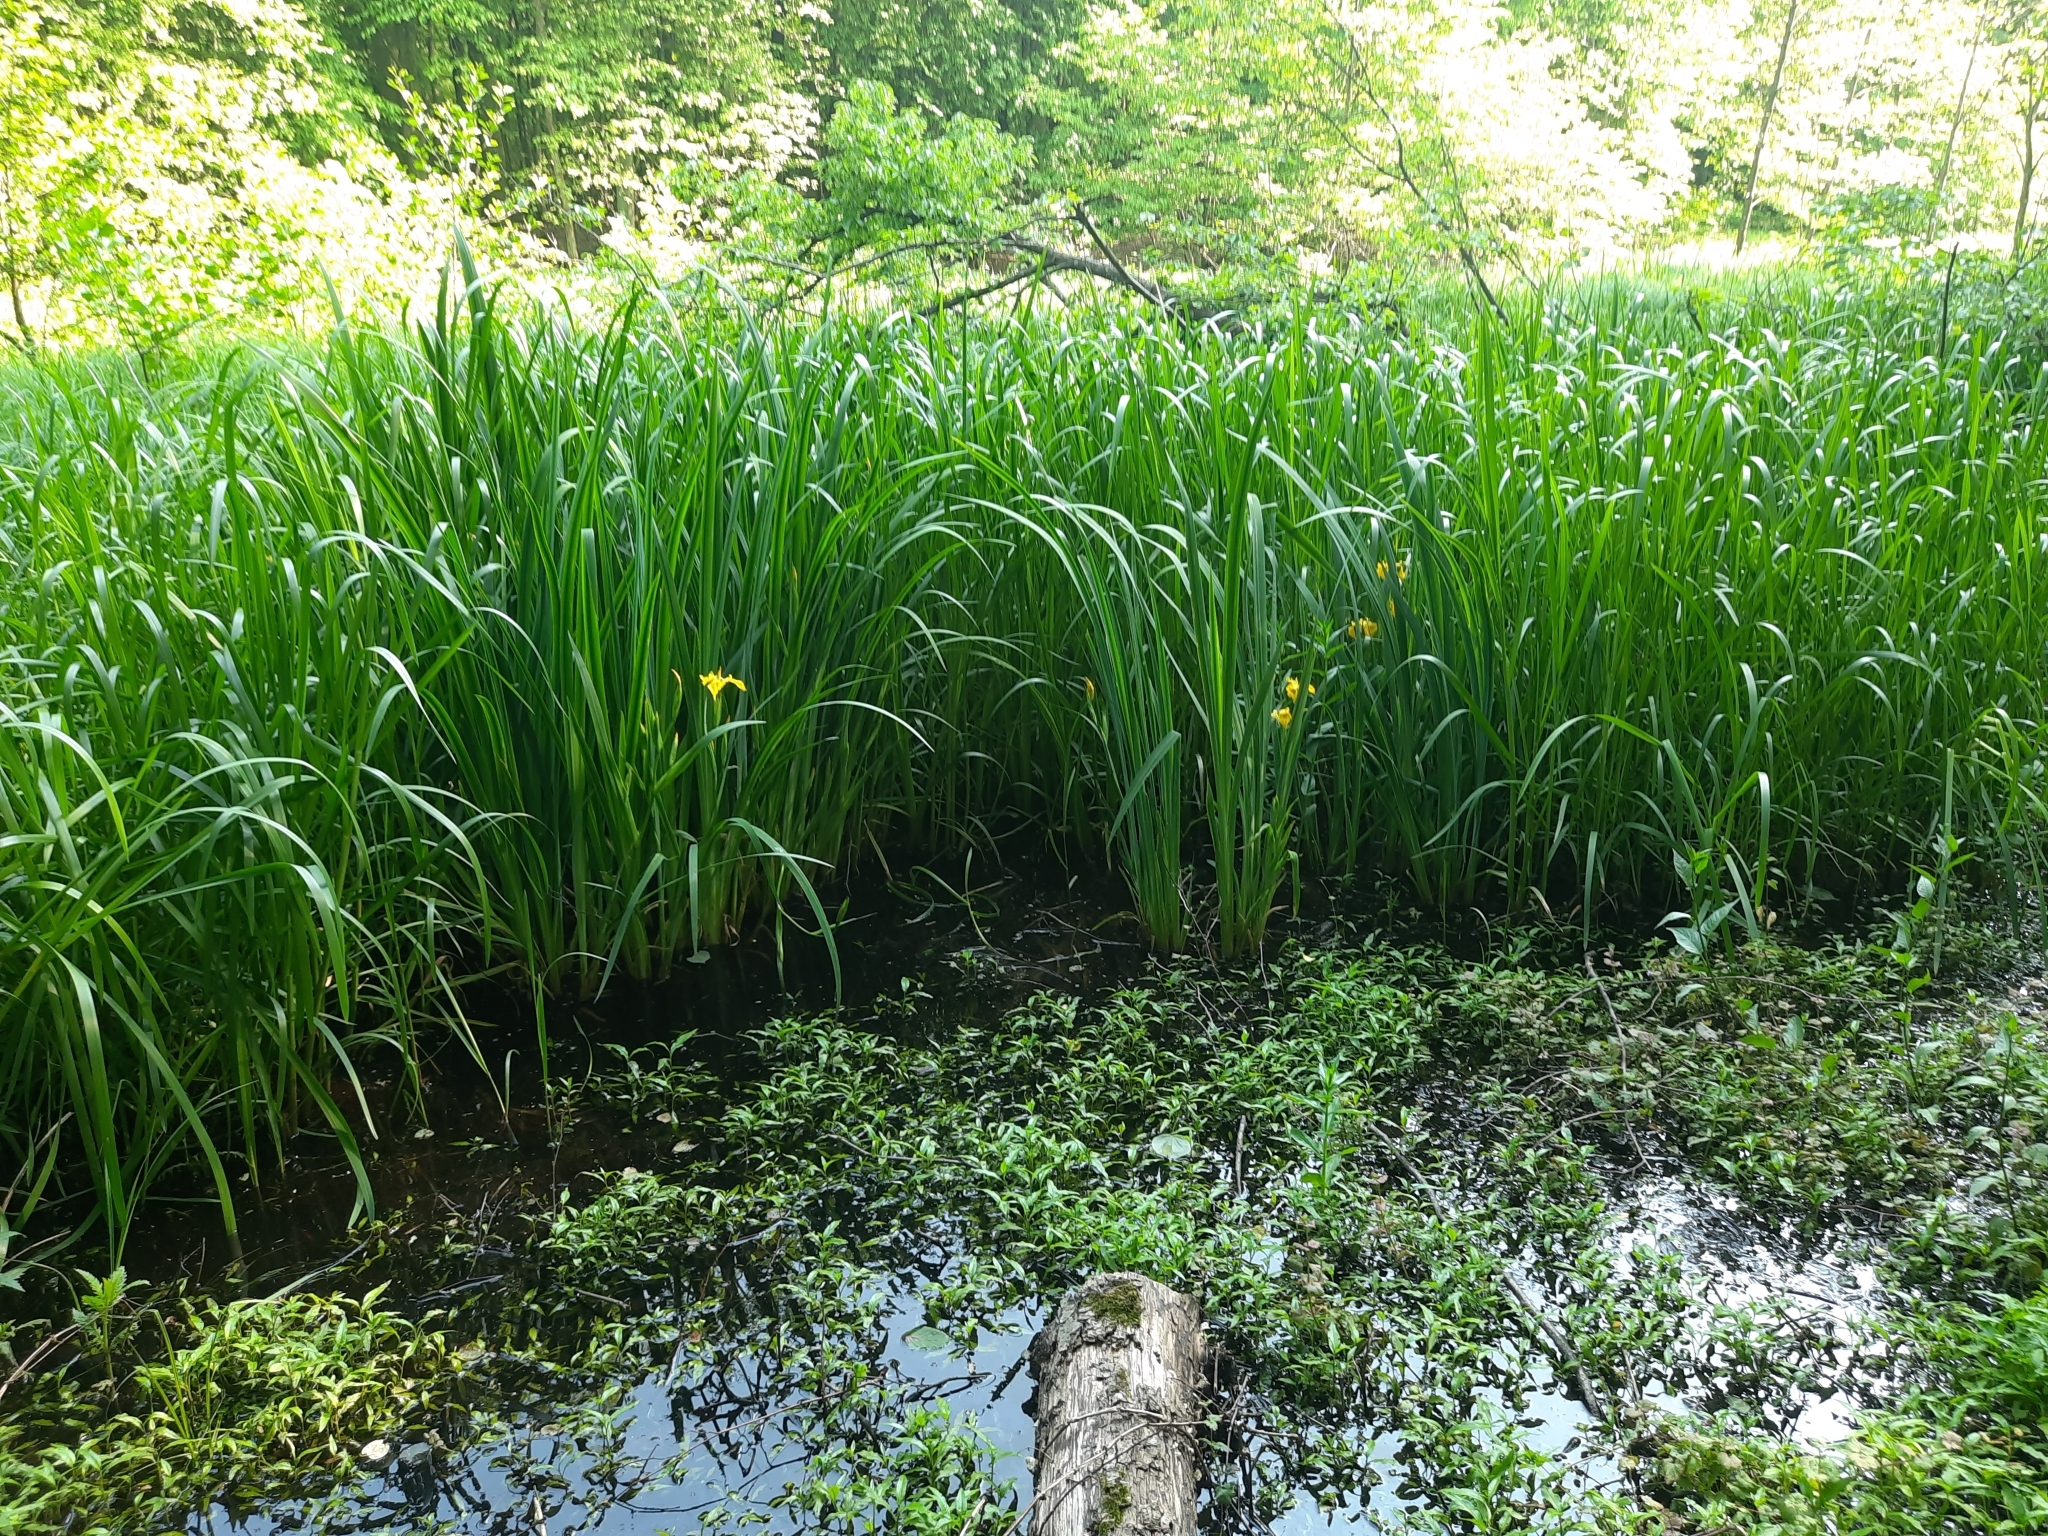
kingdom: Plantae
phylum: Tracheophyta
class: Liliopsida
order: Asparagales
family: Iridaceae
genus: Iris
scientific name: Iris pseudacorus
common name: Yellow flag
